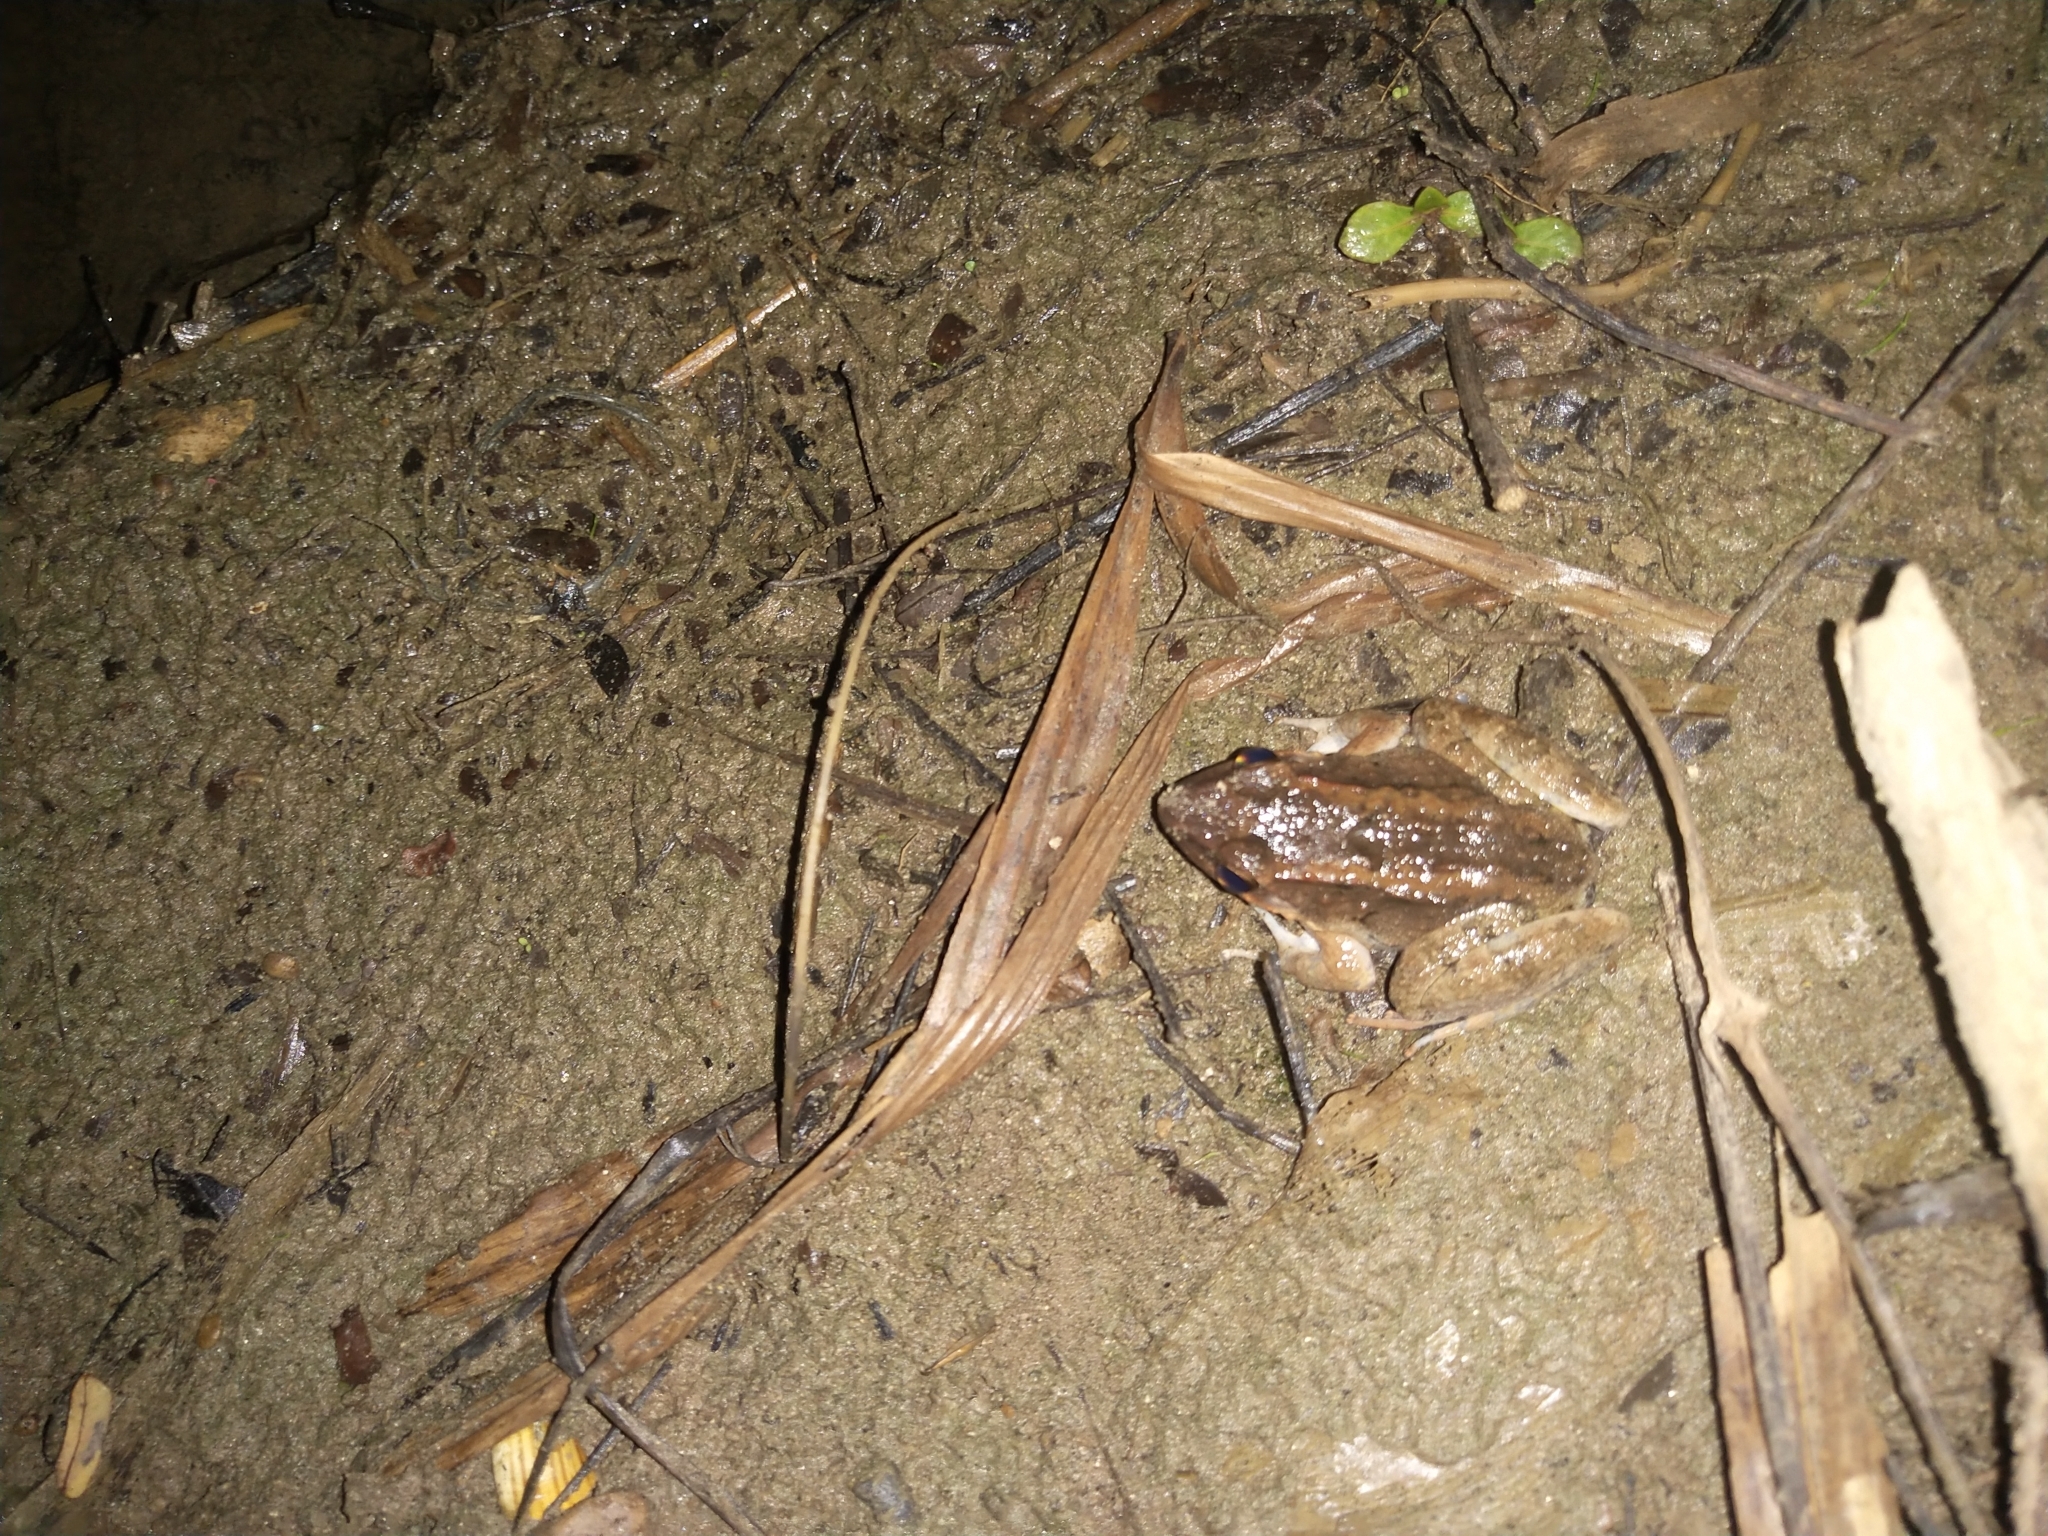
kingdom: Animalia
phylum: Chordata
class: Amphibia
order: Anura
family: Dicroglossidae
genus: Fejervarya
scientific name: Fejervarya vittigera
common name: Common pond frog
